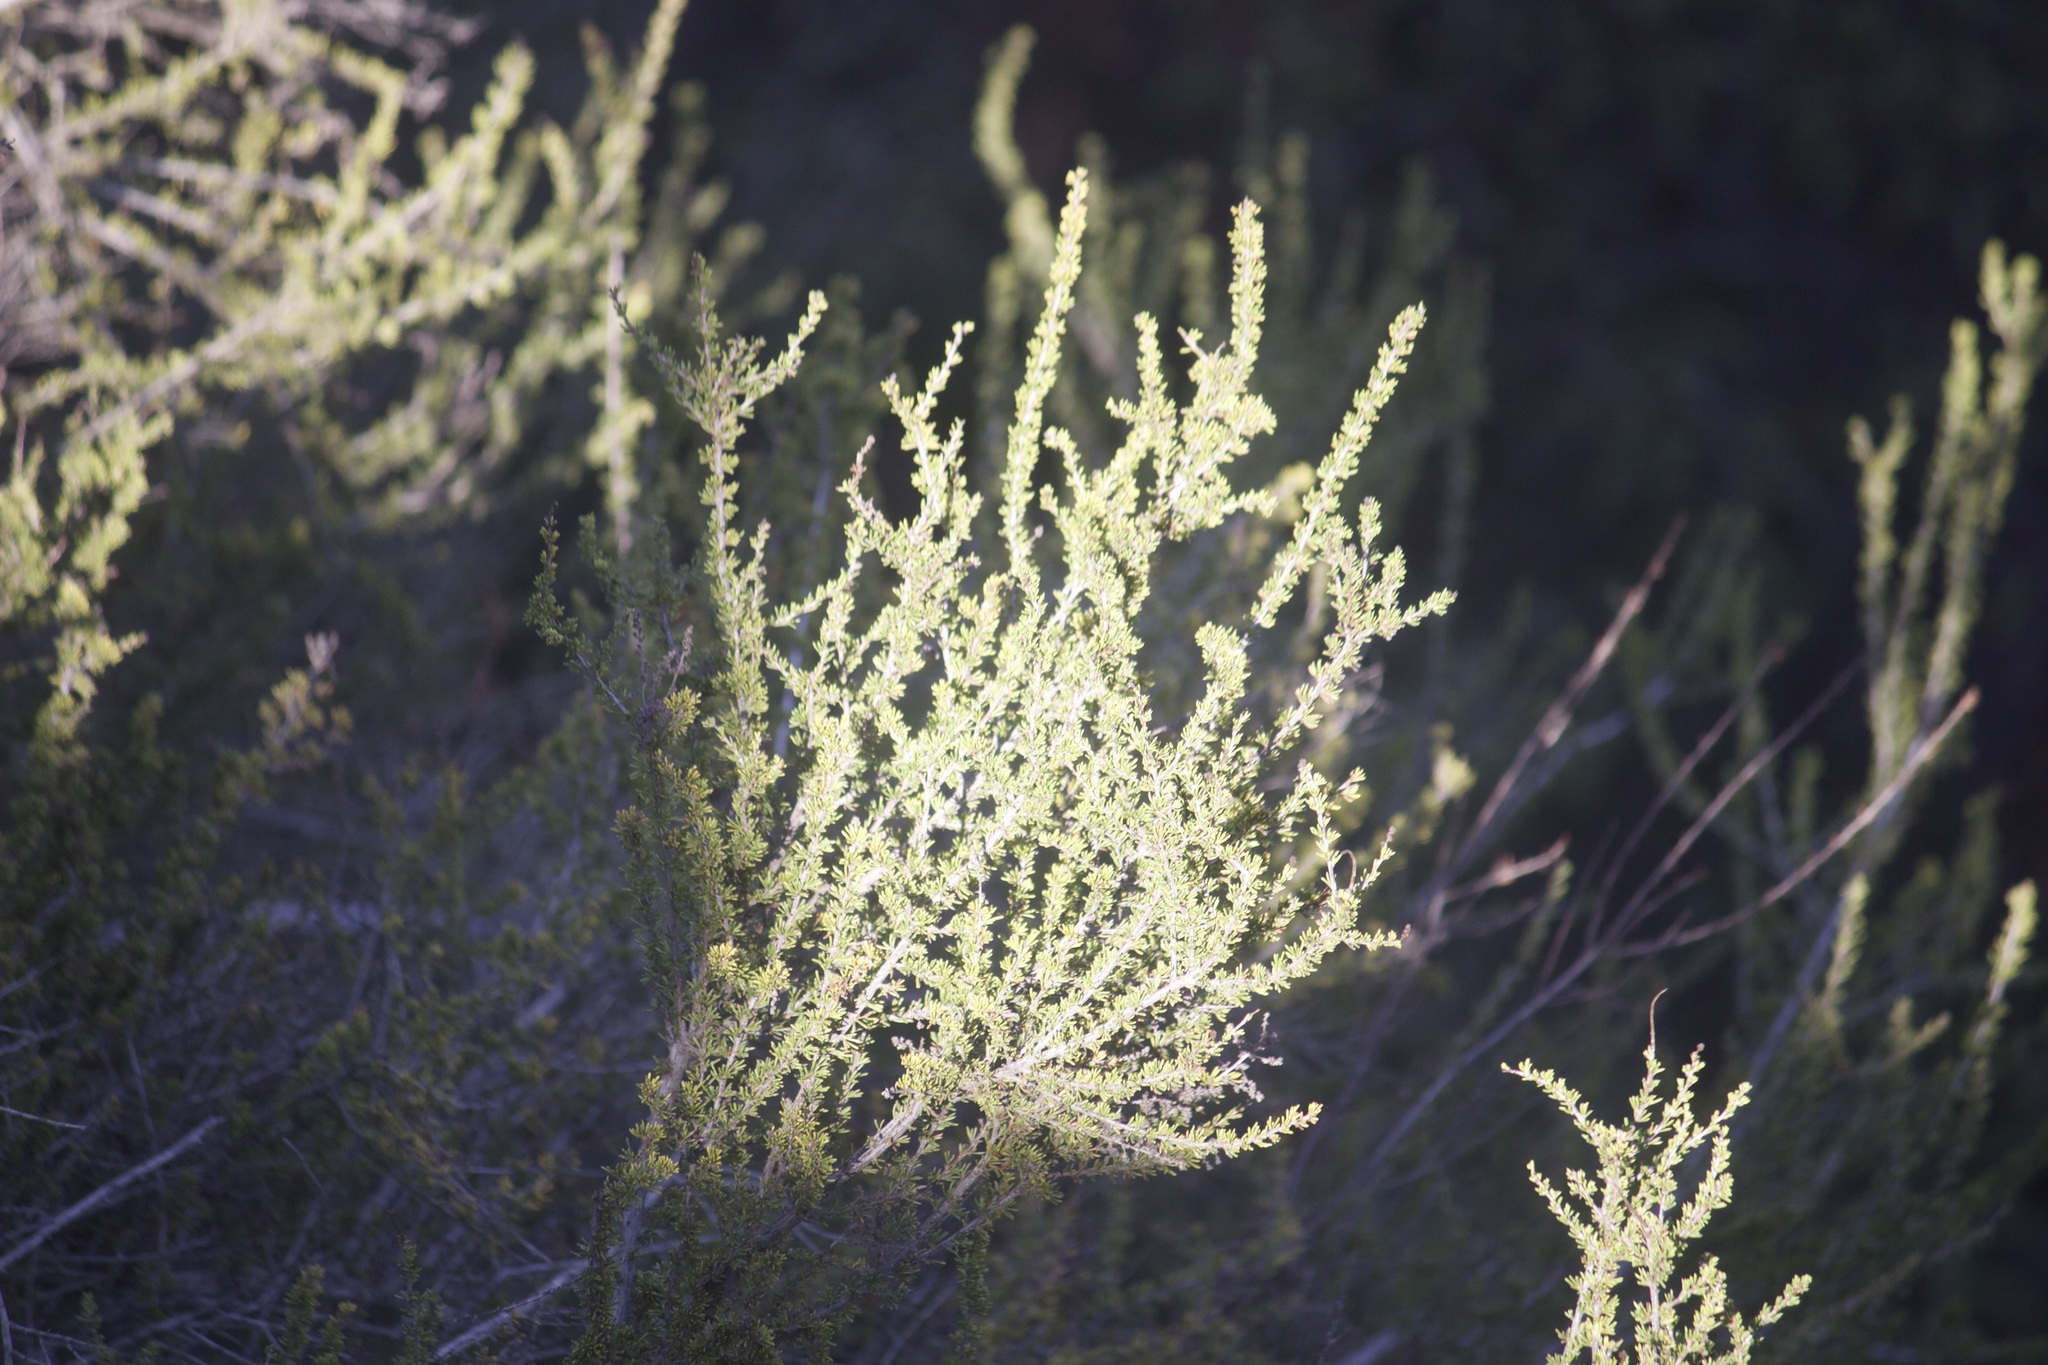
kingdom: Plantae
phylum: Tracheophyta
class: Magnoliopsida
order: Rosales
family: Rosaceae
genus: Adenostoma
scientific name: Adenostoma fasciculatum
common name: Chamise
